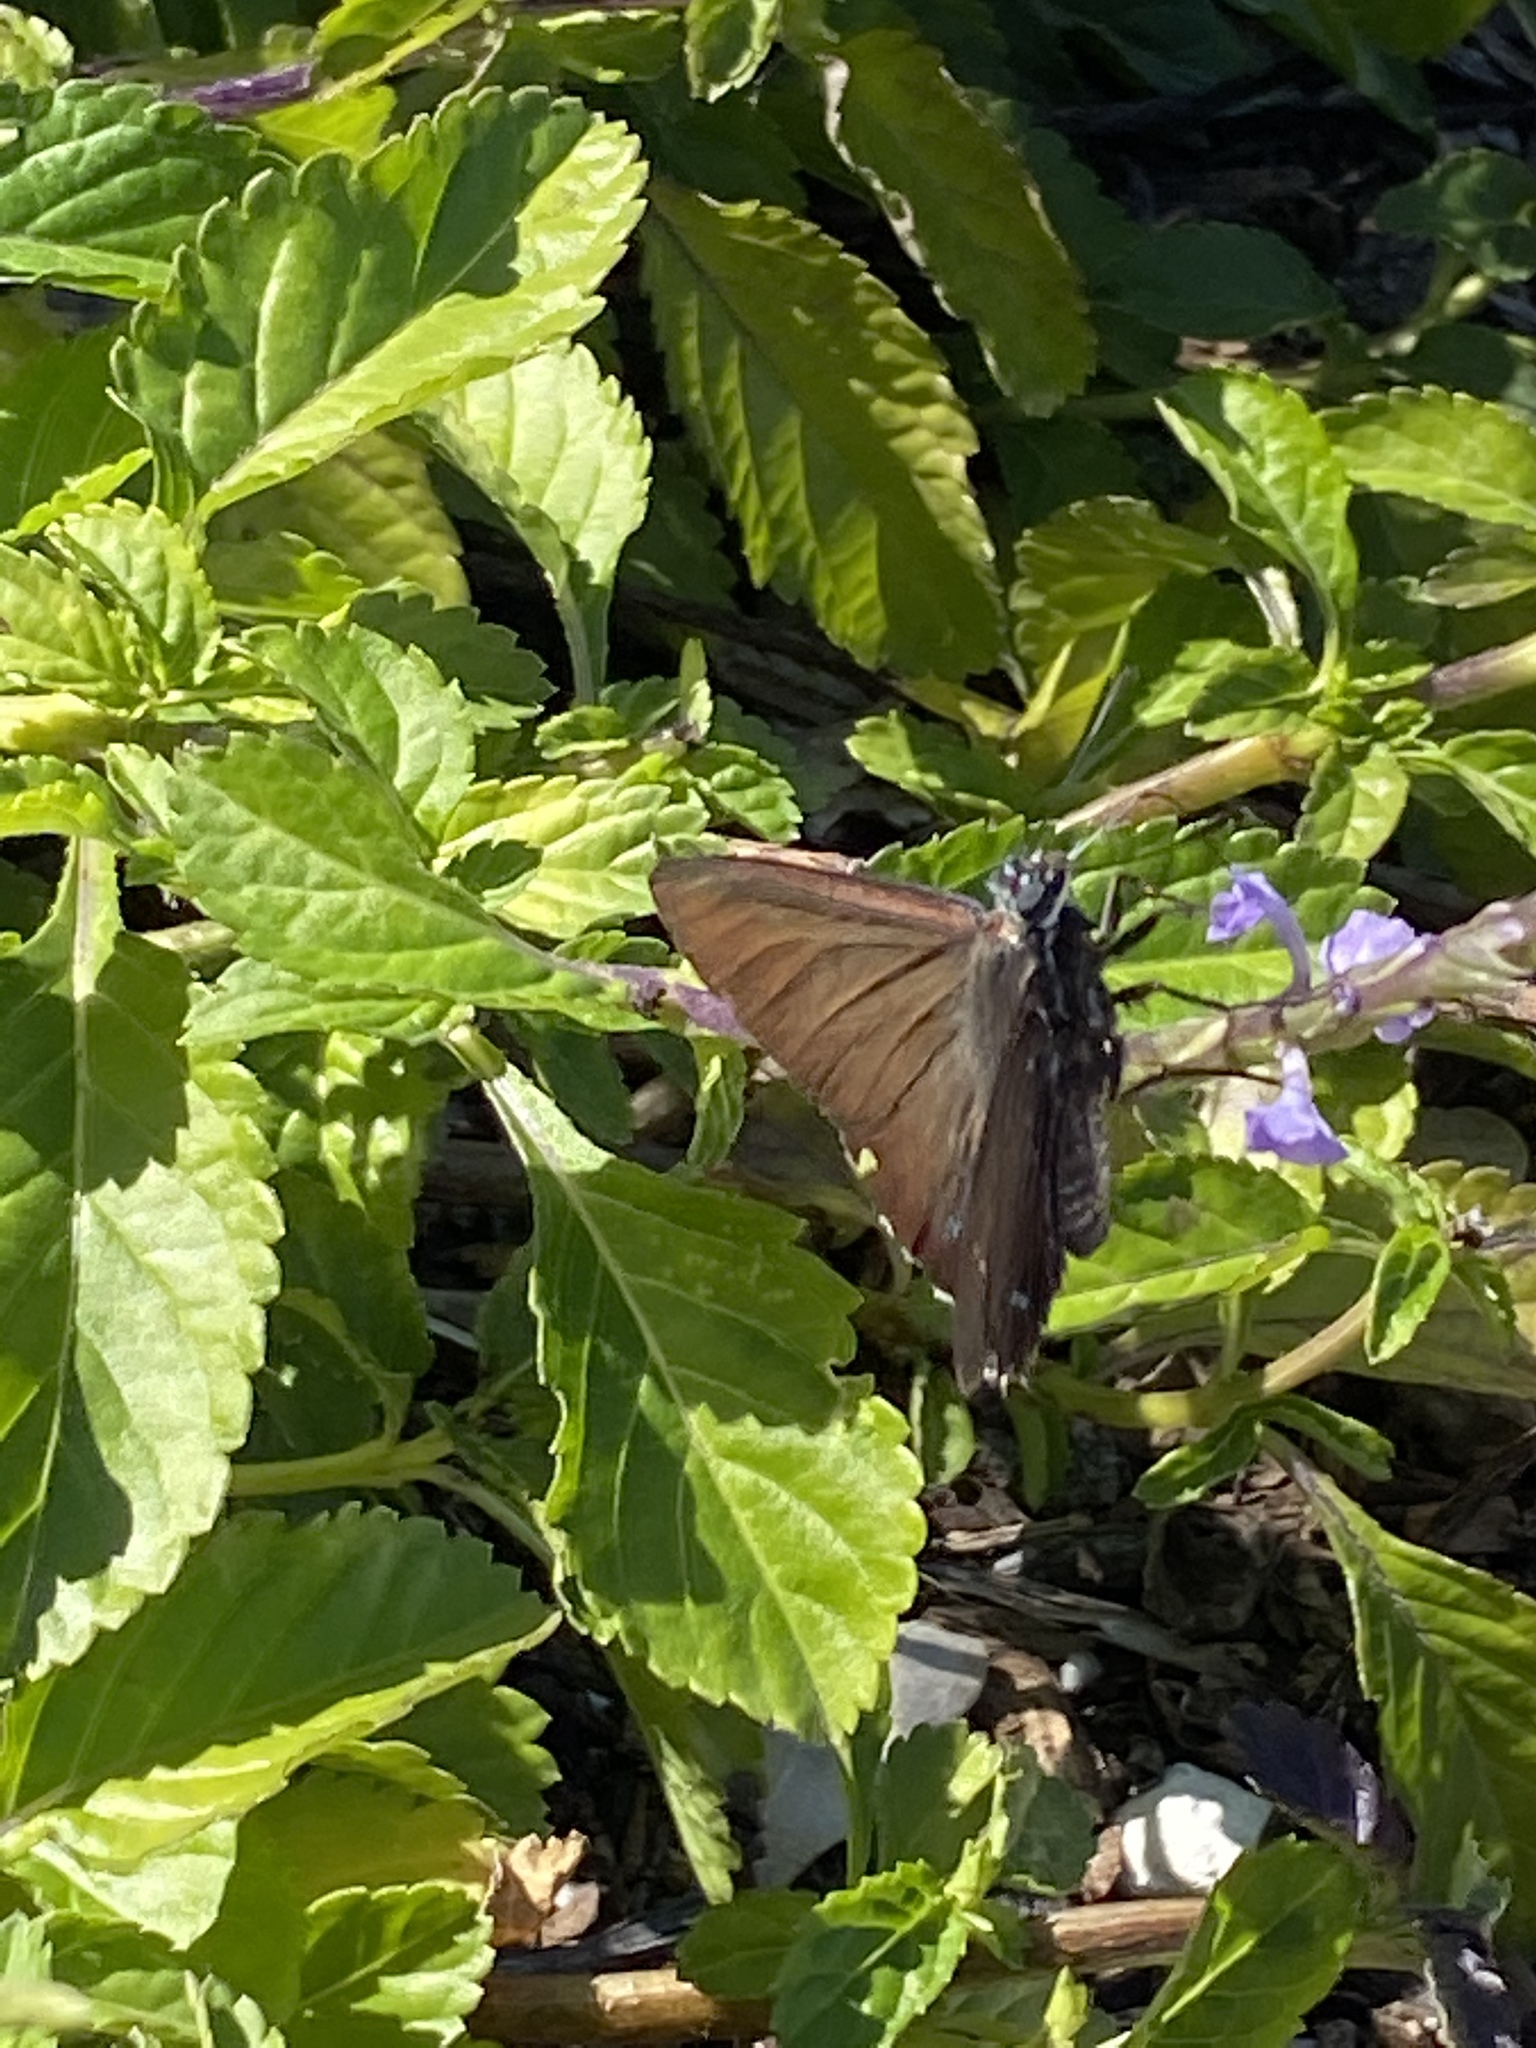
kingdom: Animalia
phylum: Arthropoda
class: Insecta
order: Lepidoptera
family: Hesperiidae
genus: Phocides
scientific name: Phocides pigmalion
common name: Mangrove skipper
